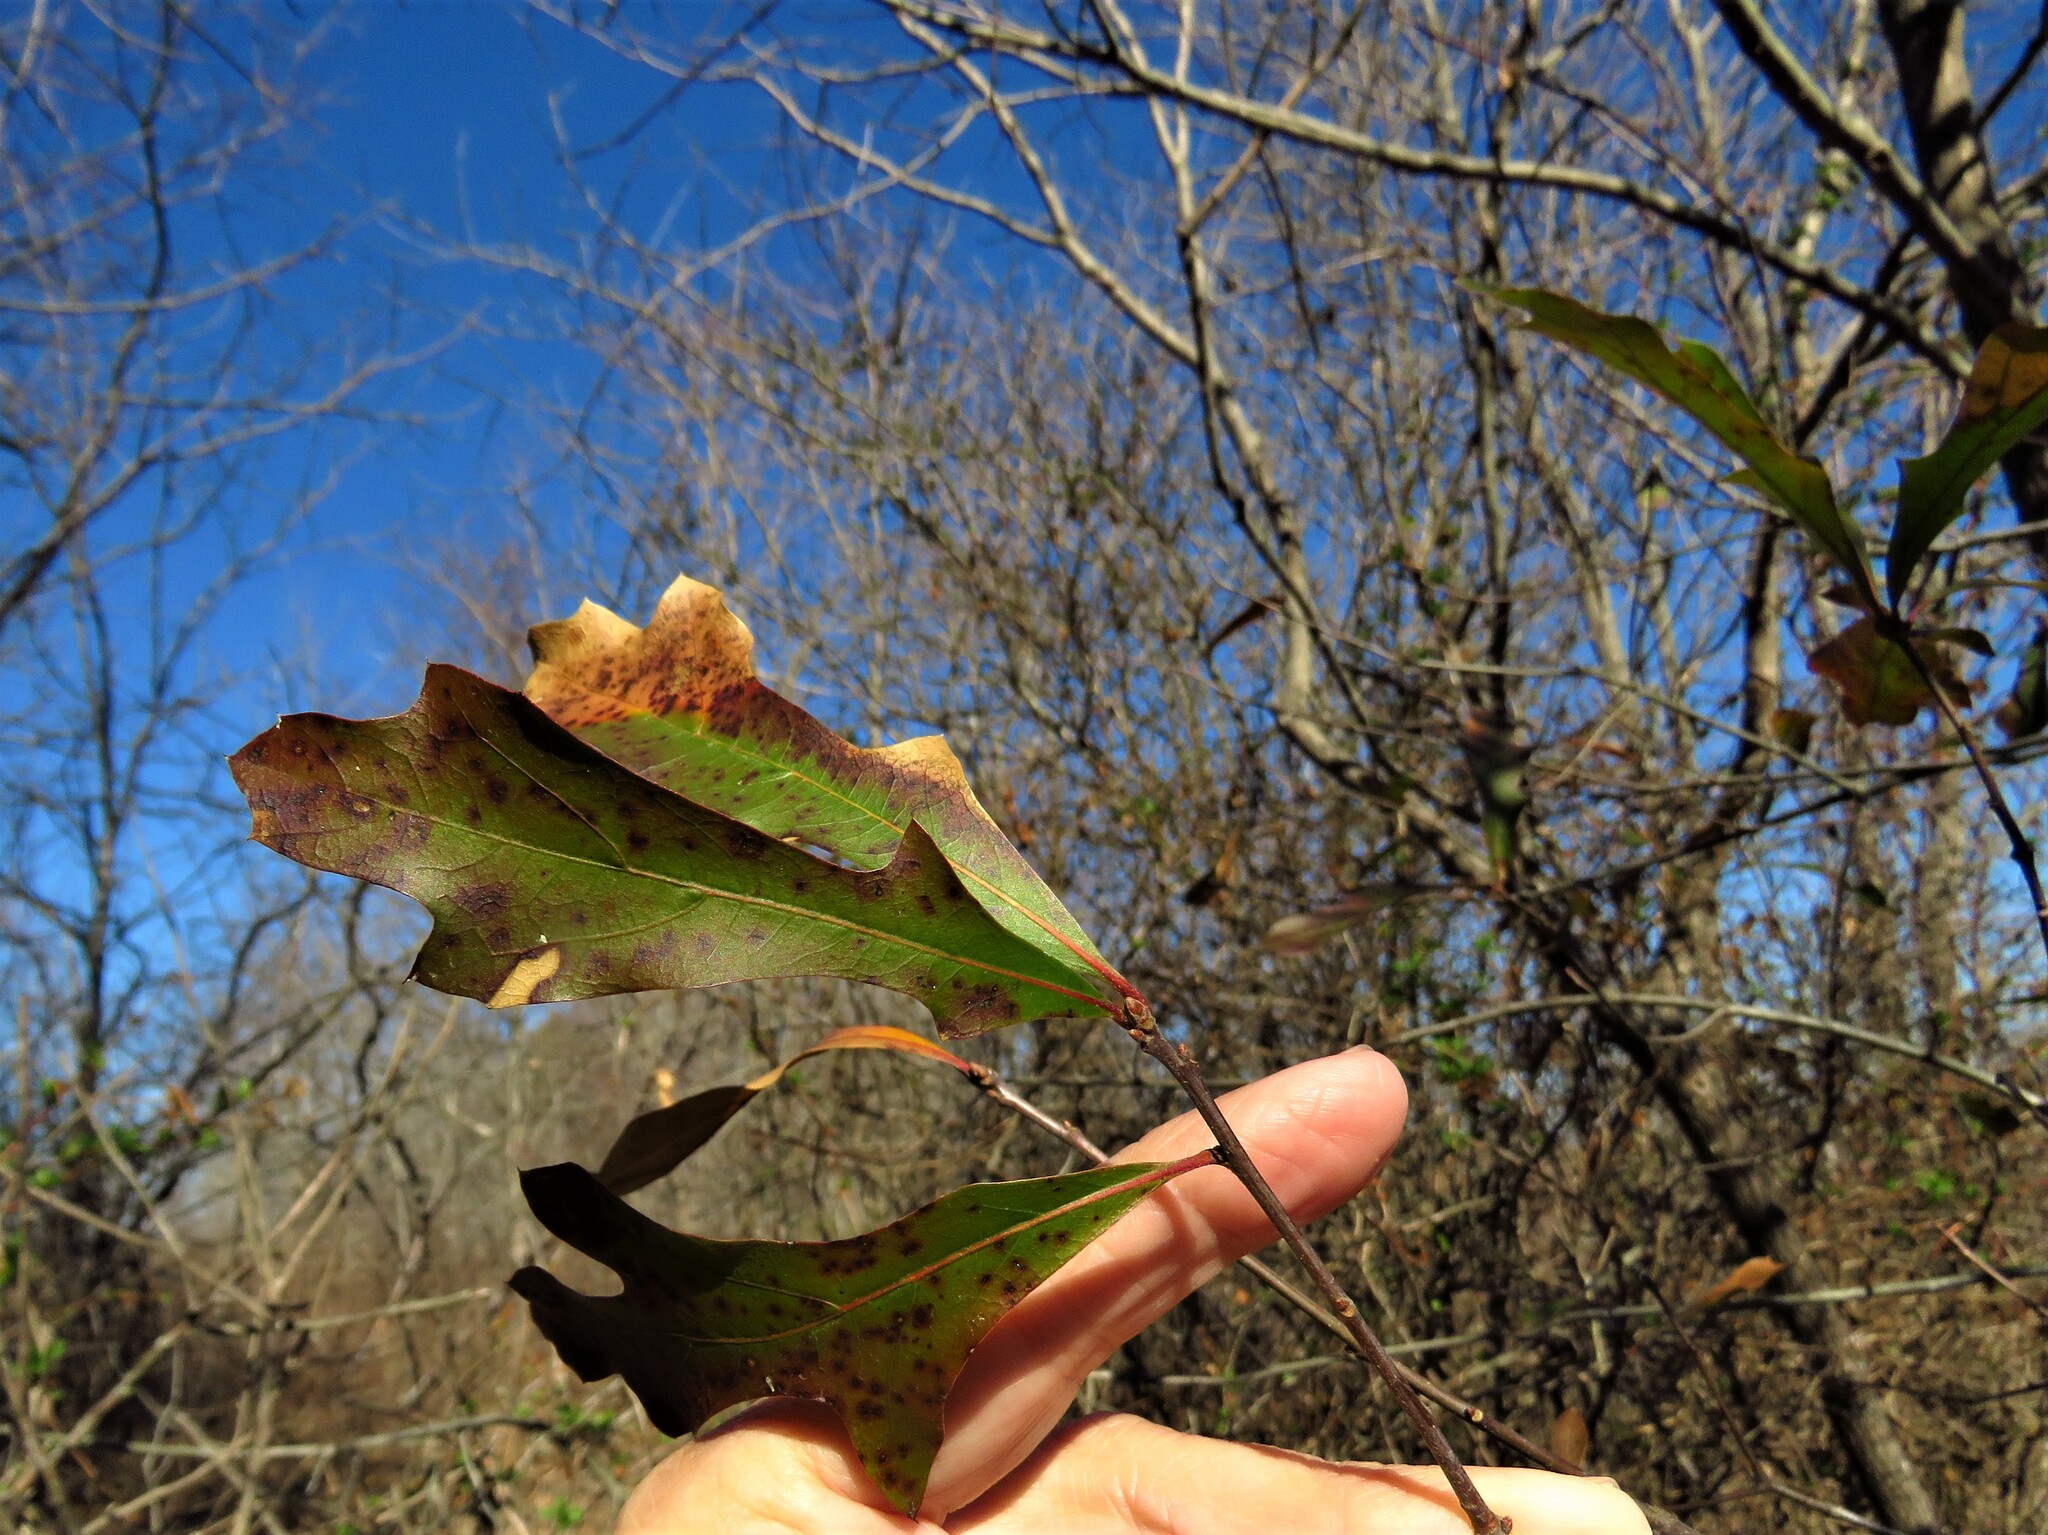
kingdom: Plantae
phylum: Tracheophyta
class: Magnoliopsida
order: Fagales
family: Fagaceae
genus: Quercus
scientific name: Quercus falcata
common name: Southern red oak
